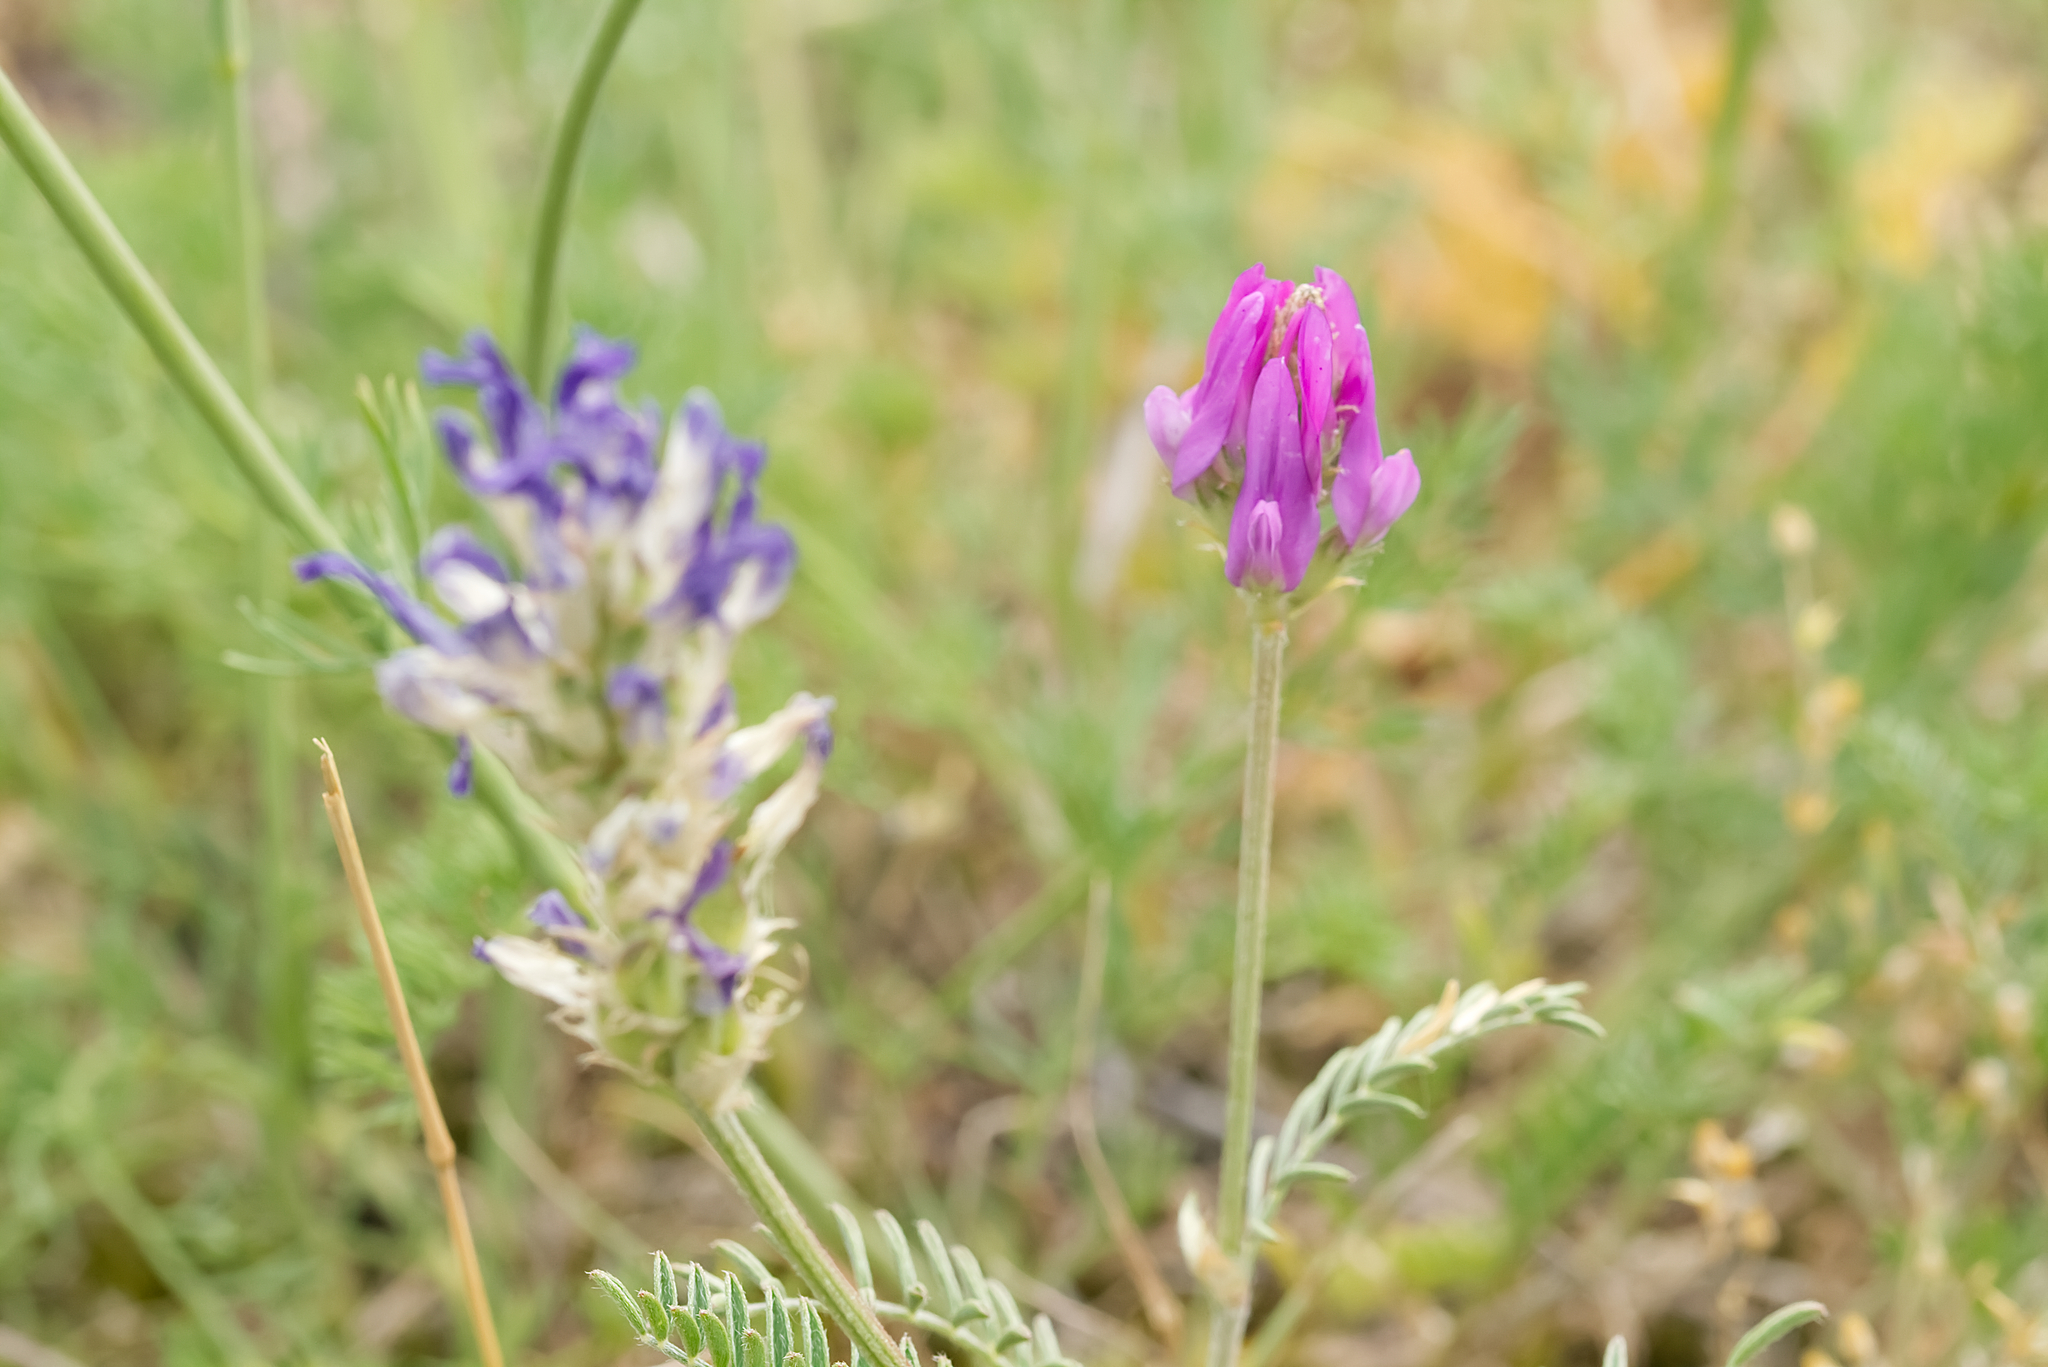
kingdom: Plantae
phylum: Tracheophyta
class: Magnoliopsida
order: Fabales
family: Fabaceae
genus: Astragalus
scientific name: Astragalus onobrychis
